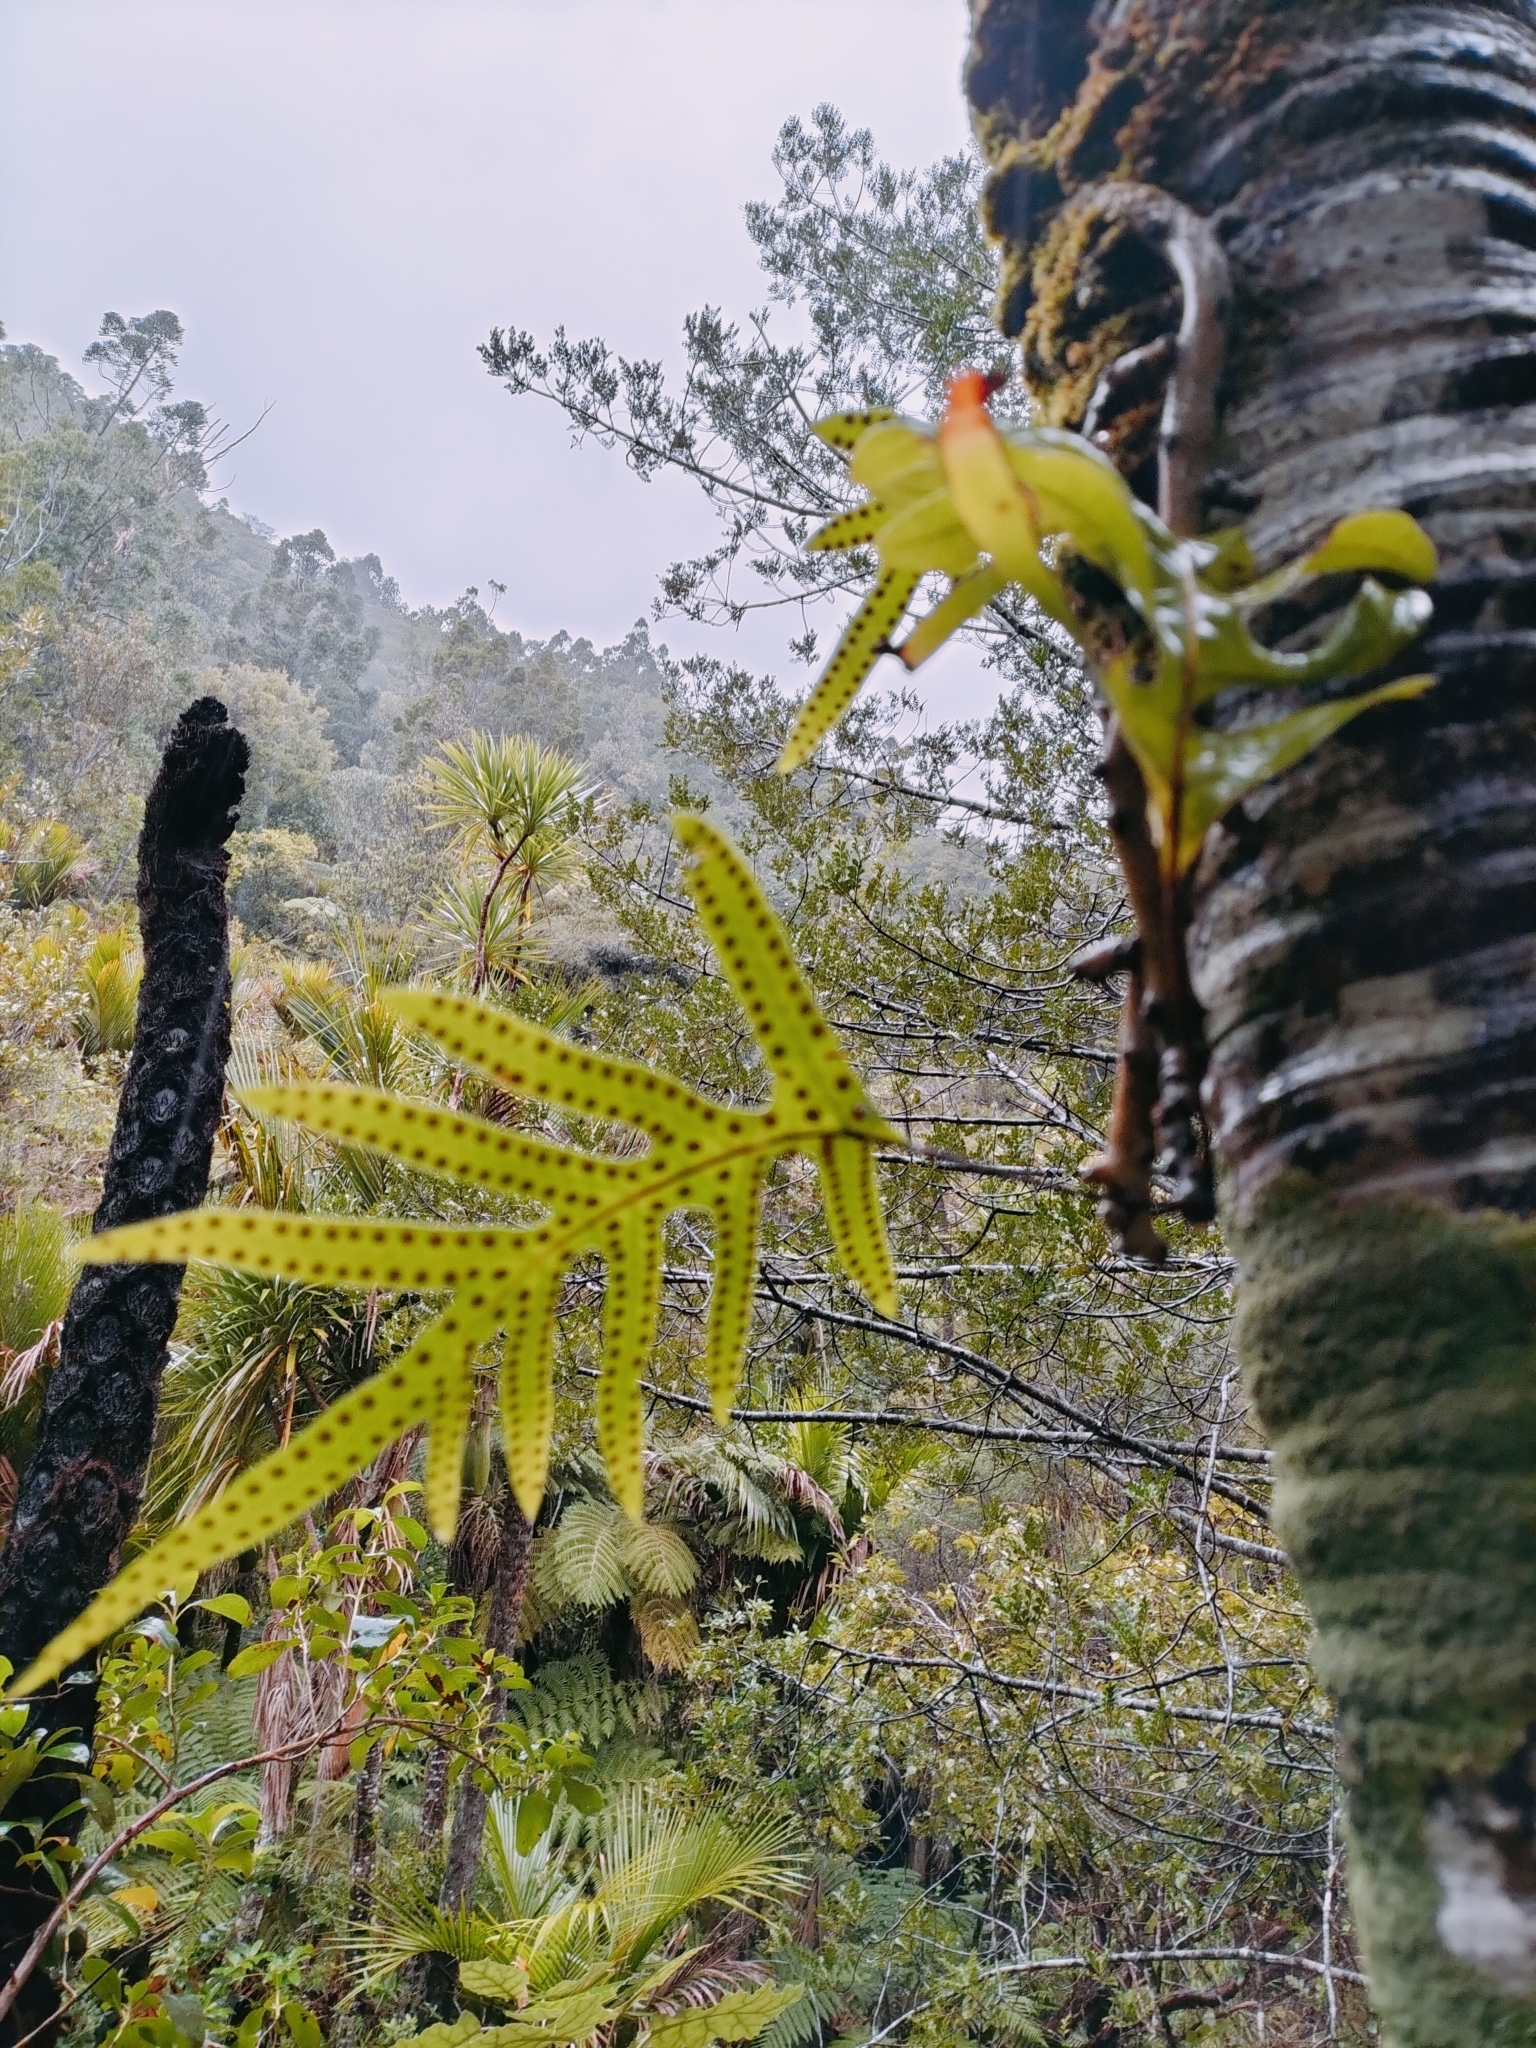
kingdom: Plantae
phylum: Tracheophyta
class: Polypodiopsida
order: Polypodiales
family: Polypodiaceae
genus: Lecanopteris
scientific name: Lecanopteris pustulata
